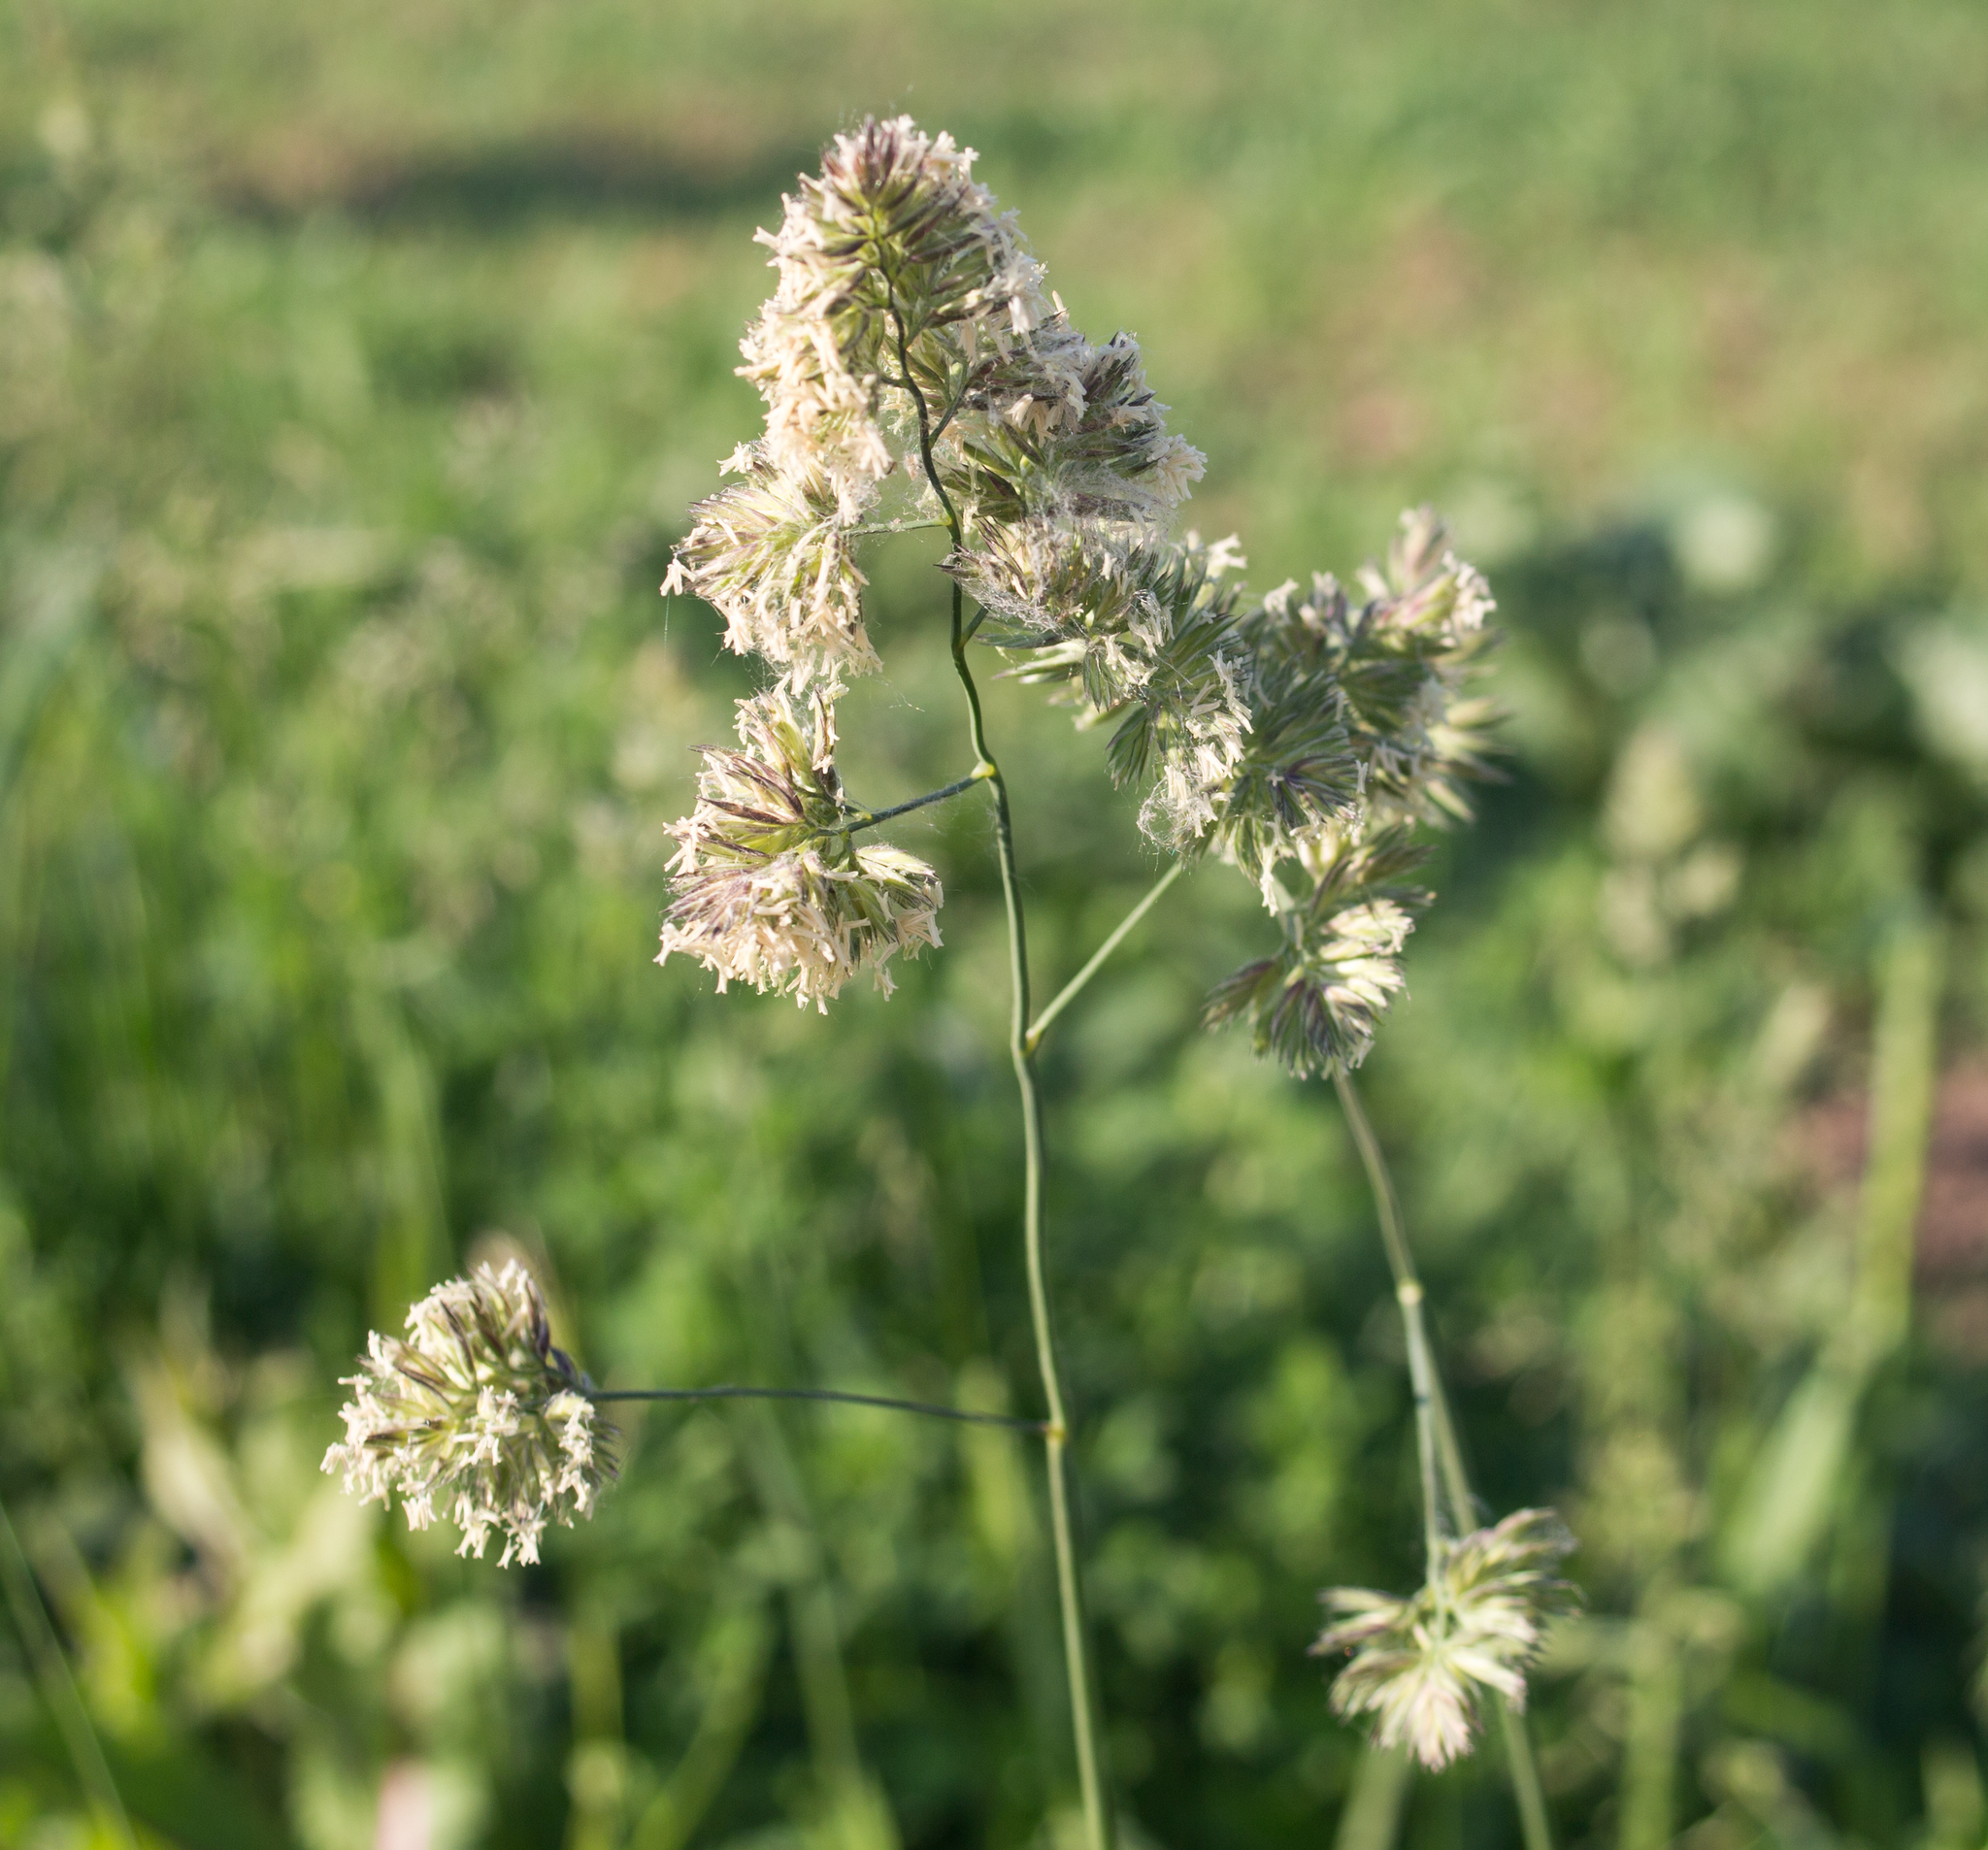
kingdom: Plantae
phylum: Tracheophyta
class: Liliopsida
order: Poales
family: Poaceae
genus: Dactylis
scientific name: Dactylis glomerata
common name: Orchardgrass
